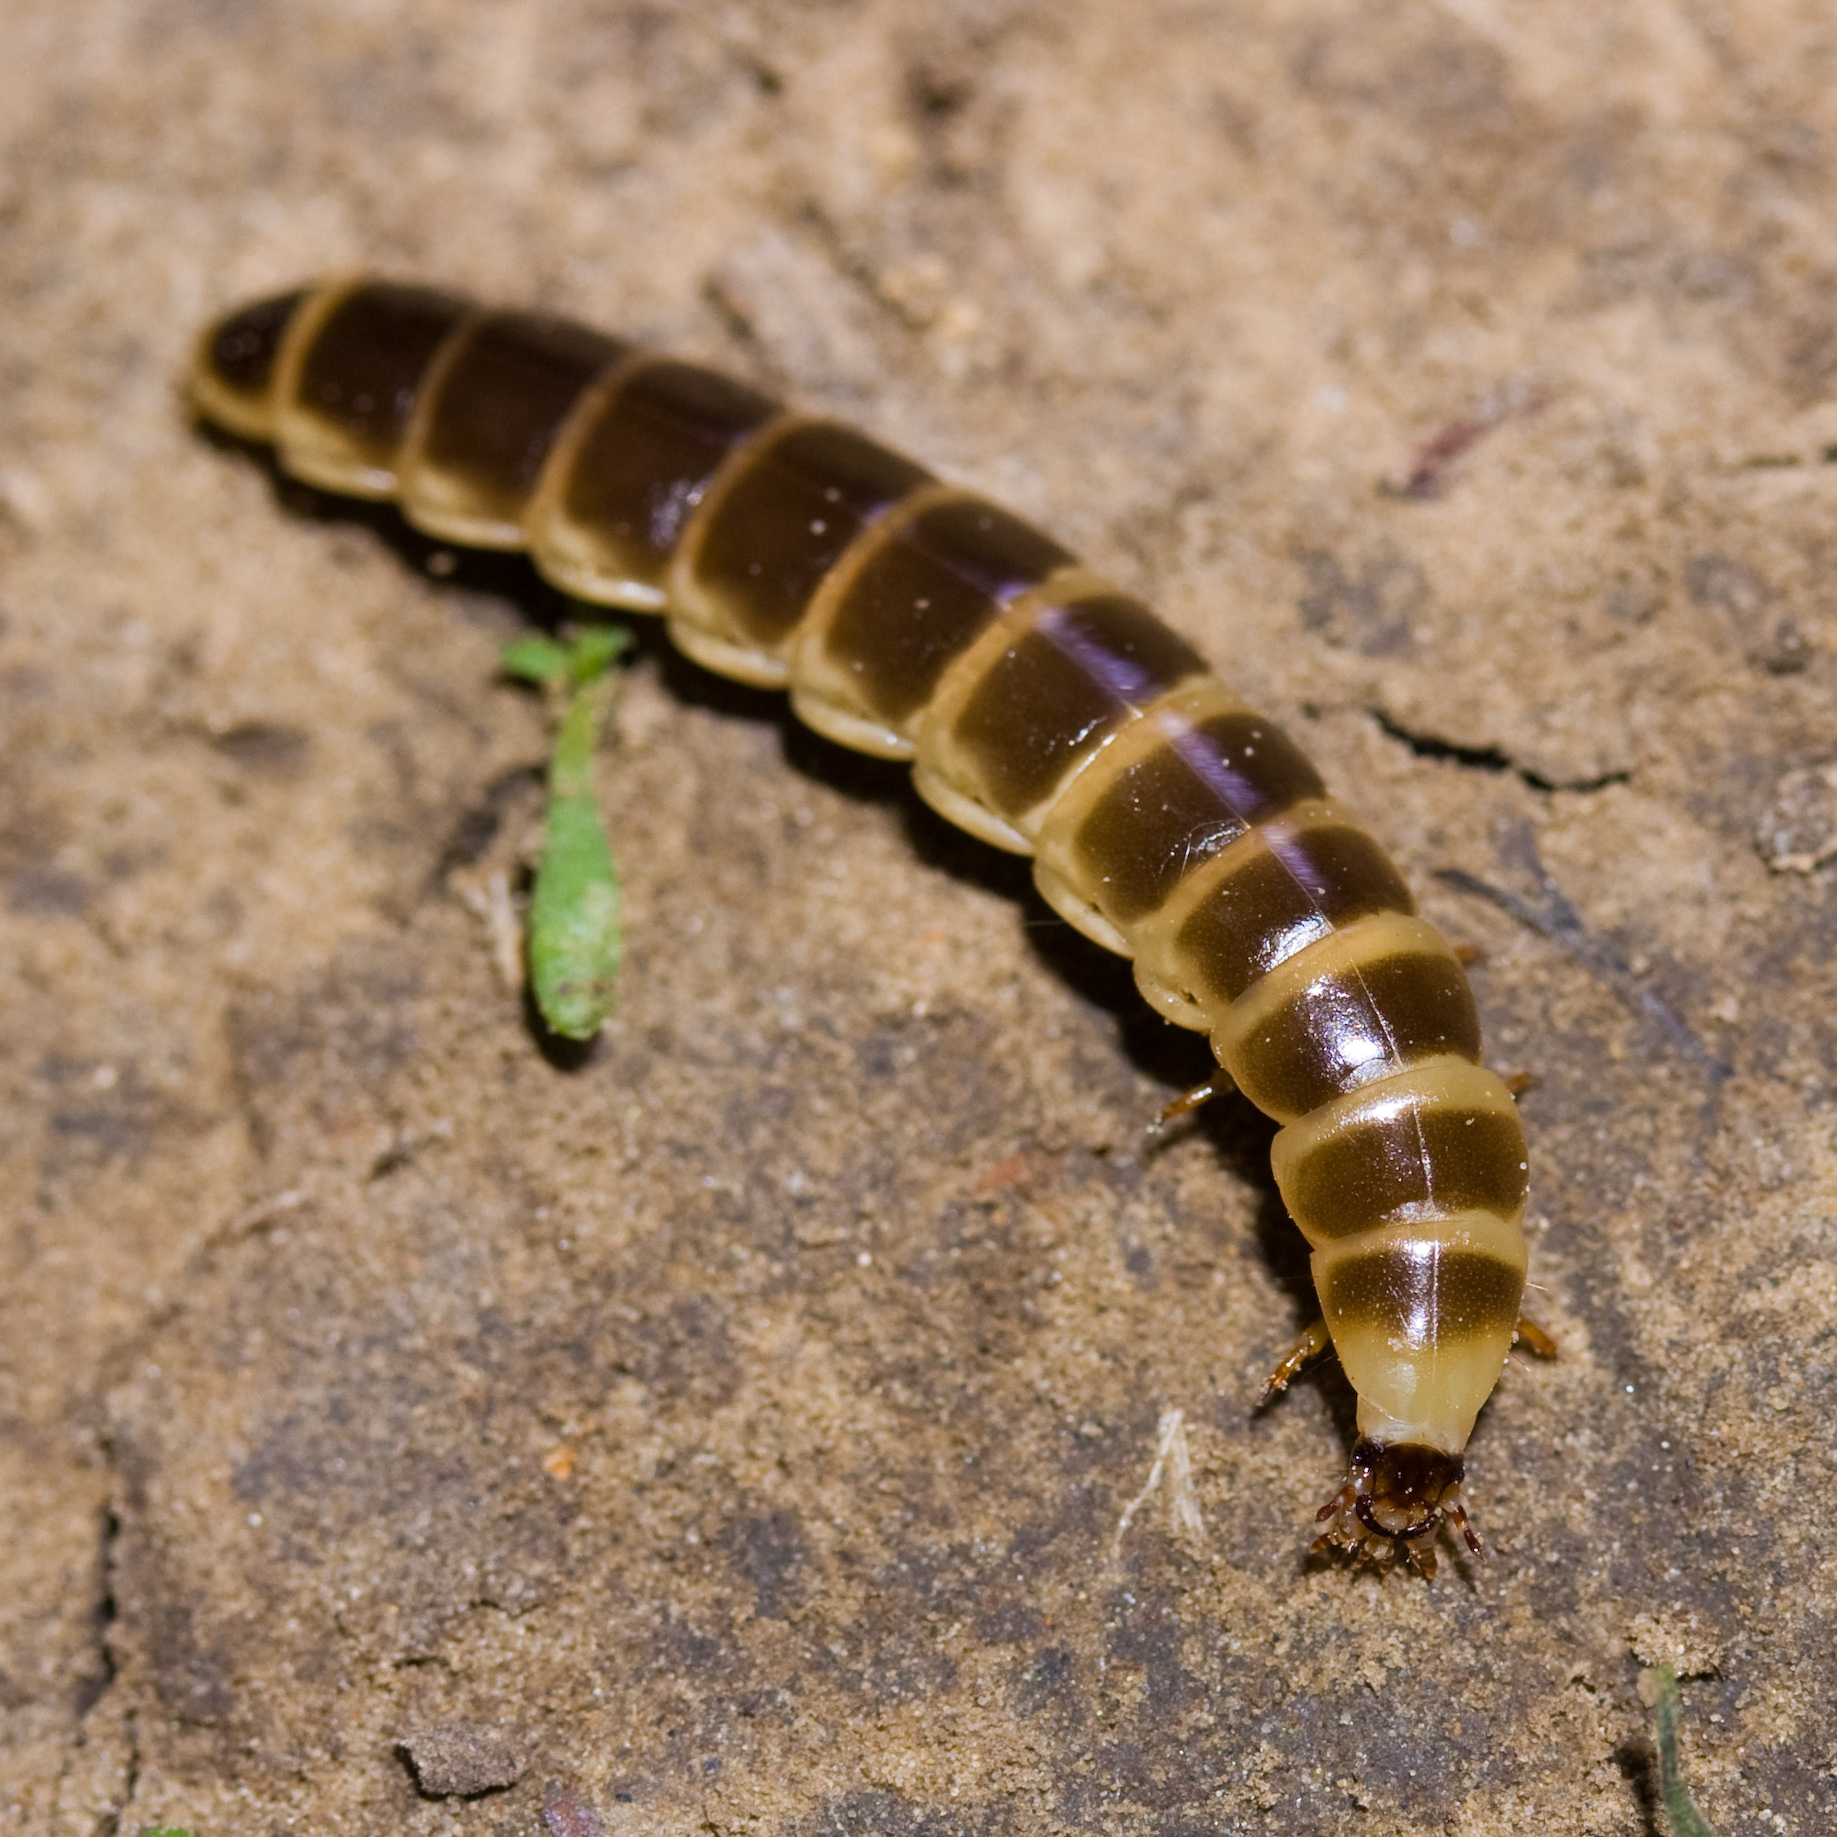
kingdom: Animalia
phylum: Arthropoda
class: Insecta
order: Coleoptera
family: Phengodidae
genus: Zarhipis
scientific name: Zarhipis integripennis
